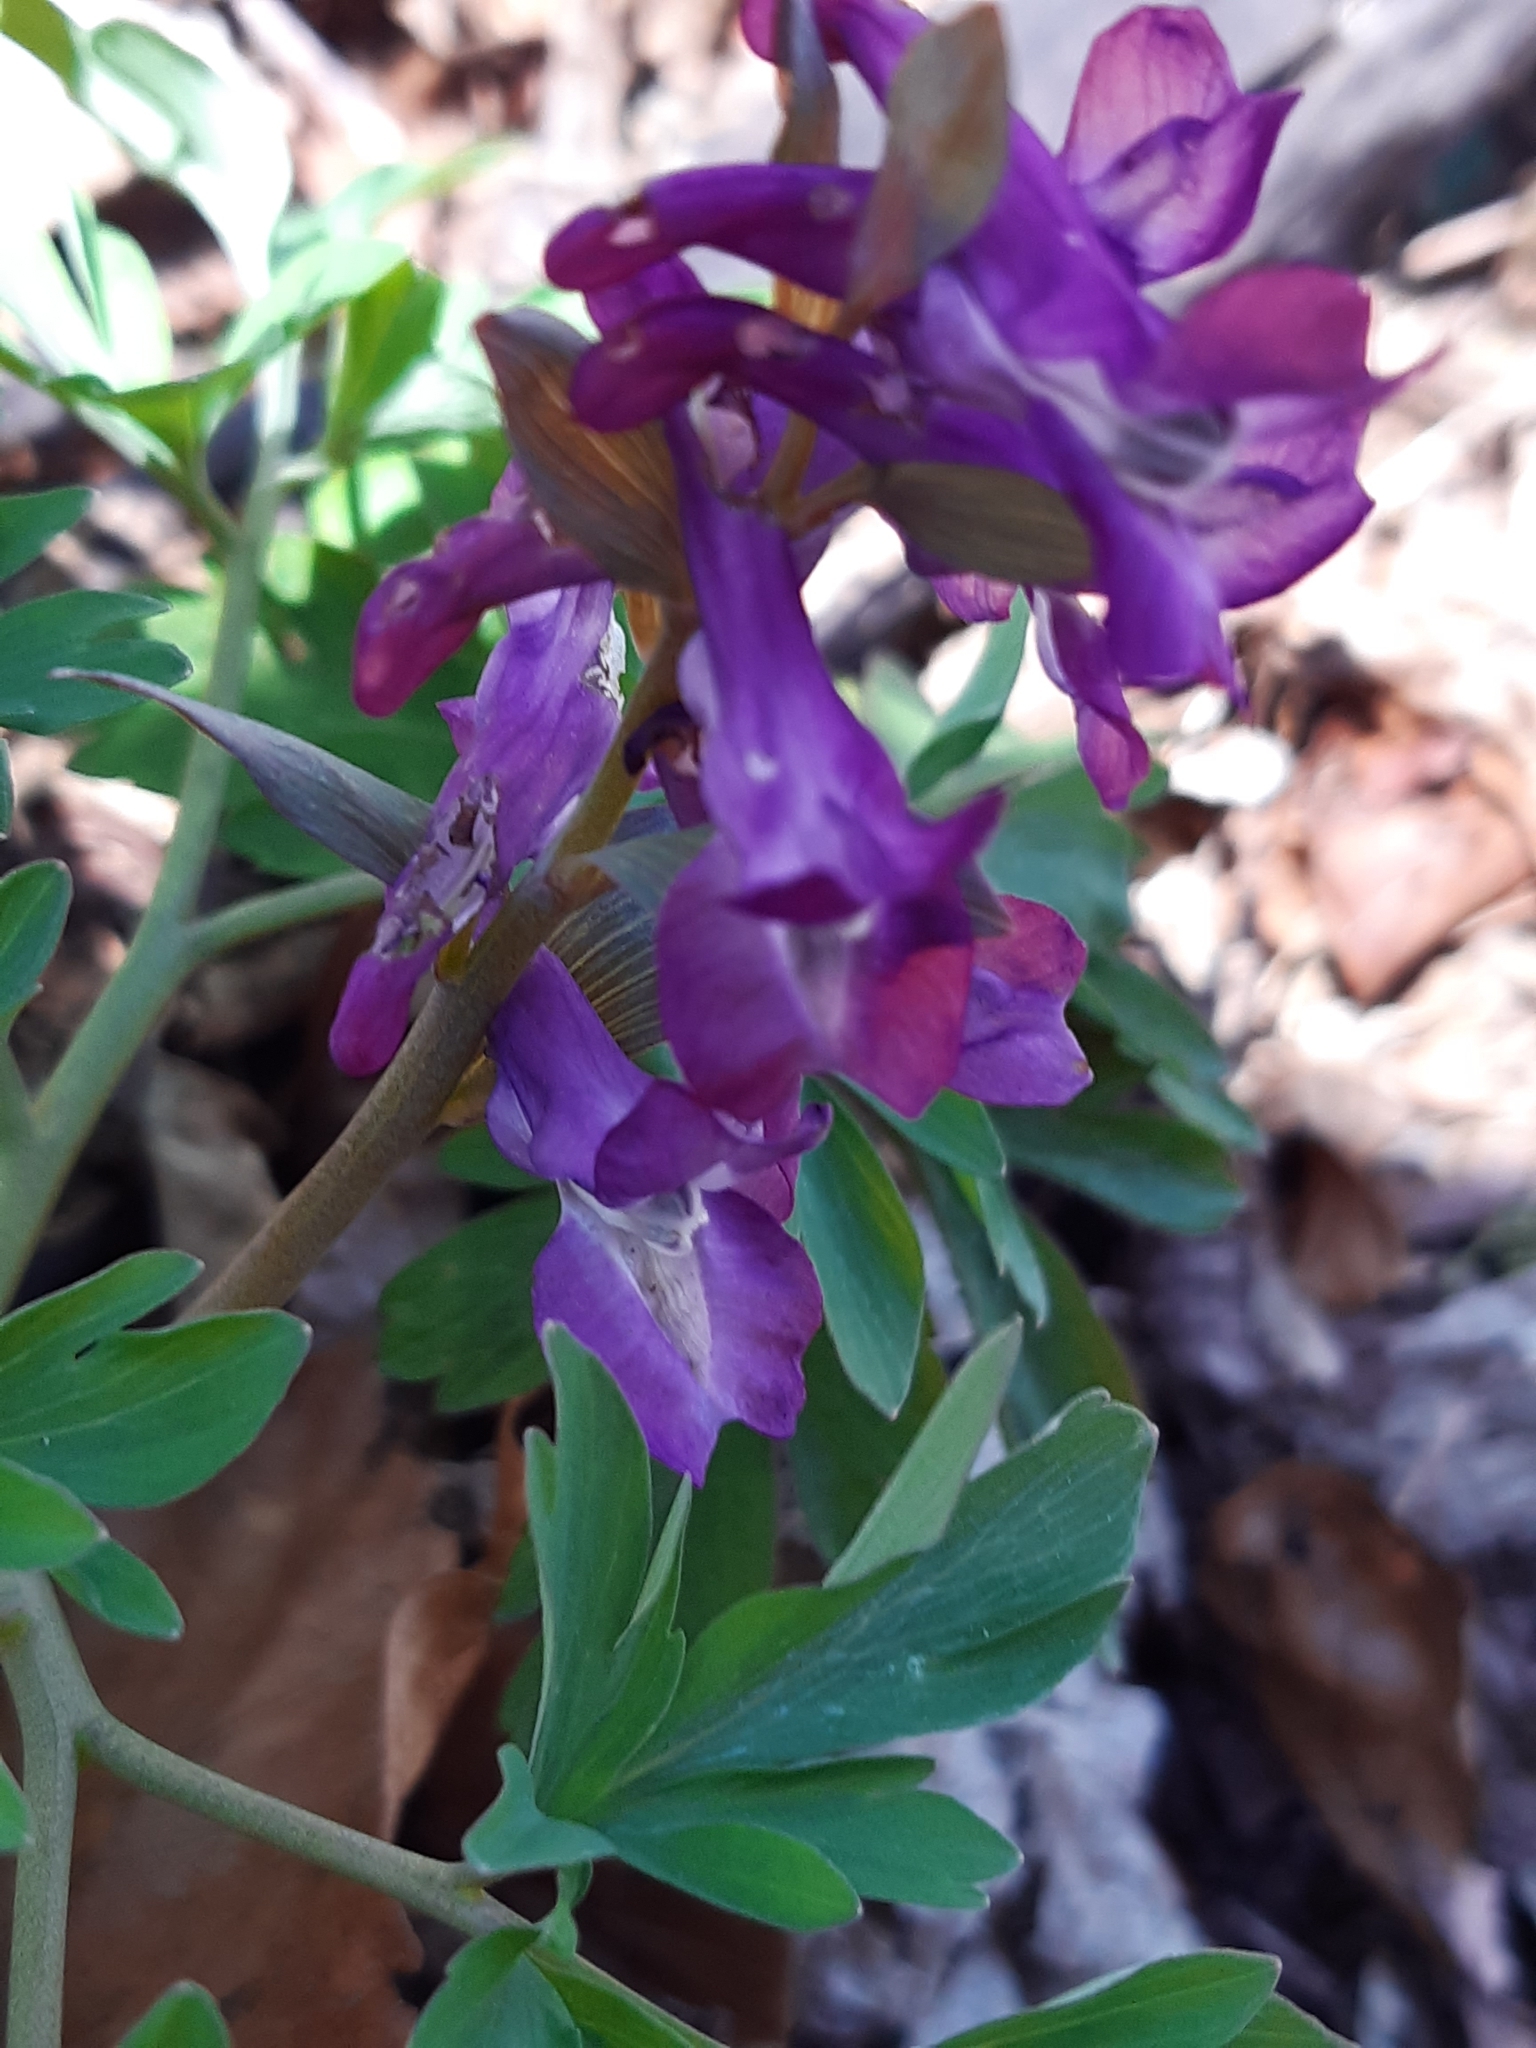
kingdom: Plantae
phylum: Tracheophyta
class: Magnoliopsida
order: Ranunculales
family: Papaveraceae
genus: Corydalis
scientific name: Corydalis cava
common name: Hollowroot
